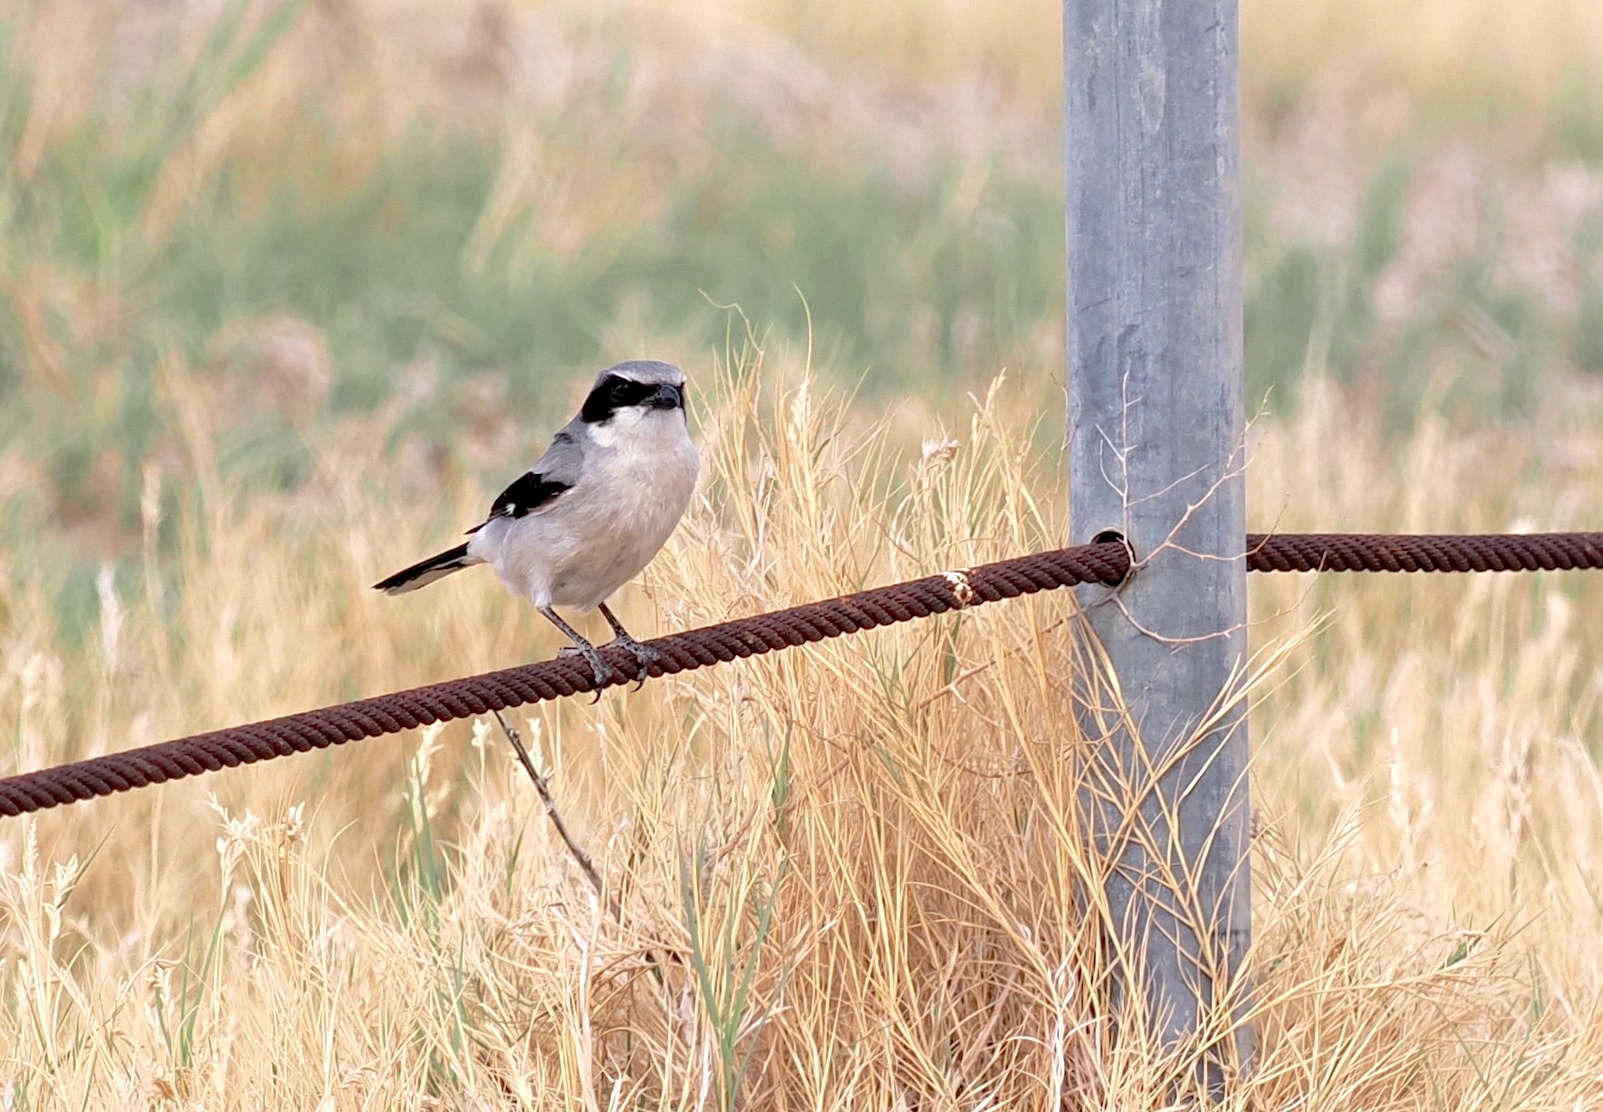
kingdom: Animalia
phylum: Chordata
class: Aves
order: Passeriformes
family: Laniidae
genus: Lanius
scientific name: Lanius ludovicianus
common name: Loggerhead shrike
